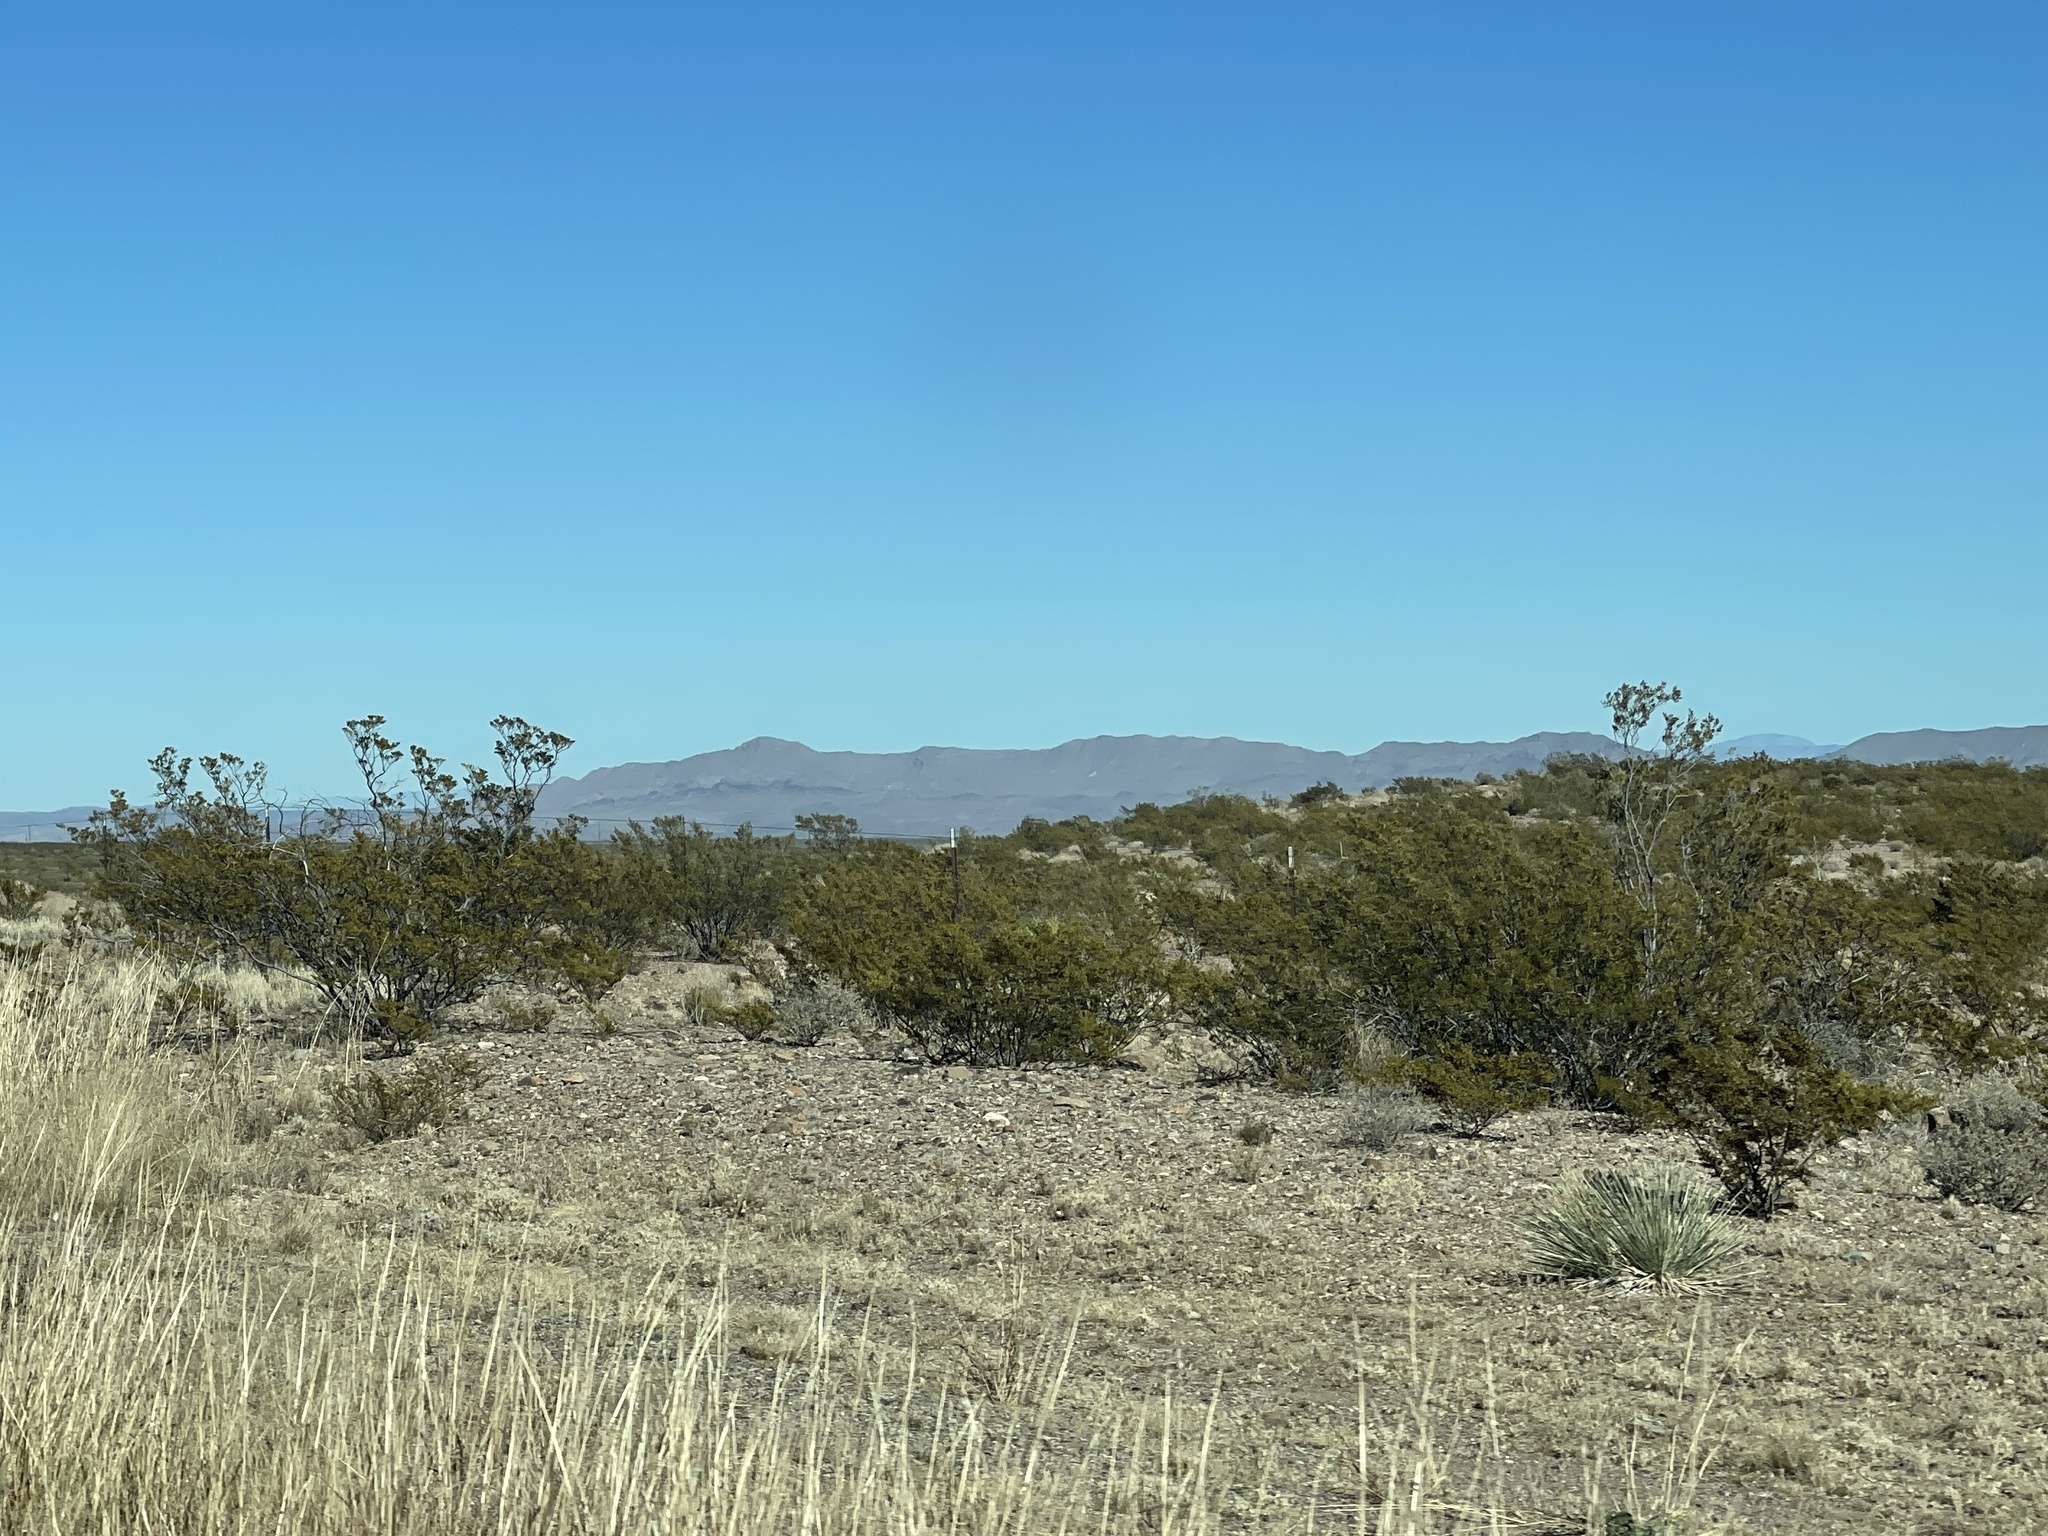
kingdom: Plantae
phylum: Tracheophyta
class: Magnoliopsida
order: Zygophyllales
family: Zygophyllaceae
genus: Larrea
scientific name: Larrea tridentata
